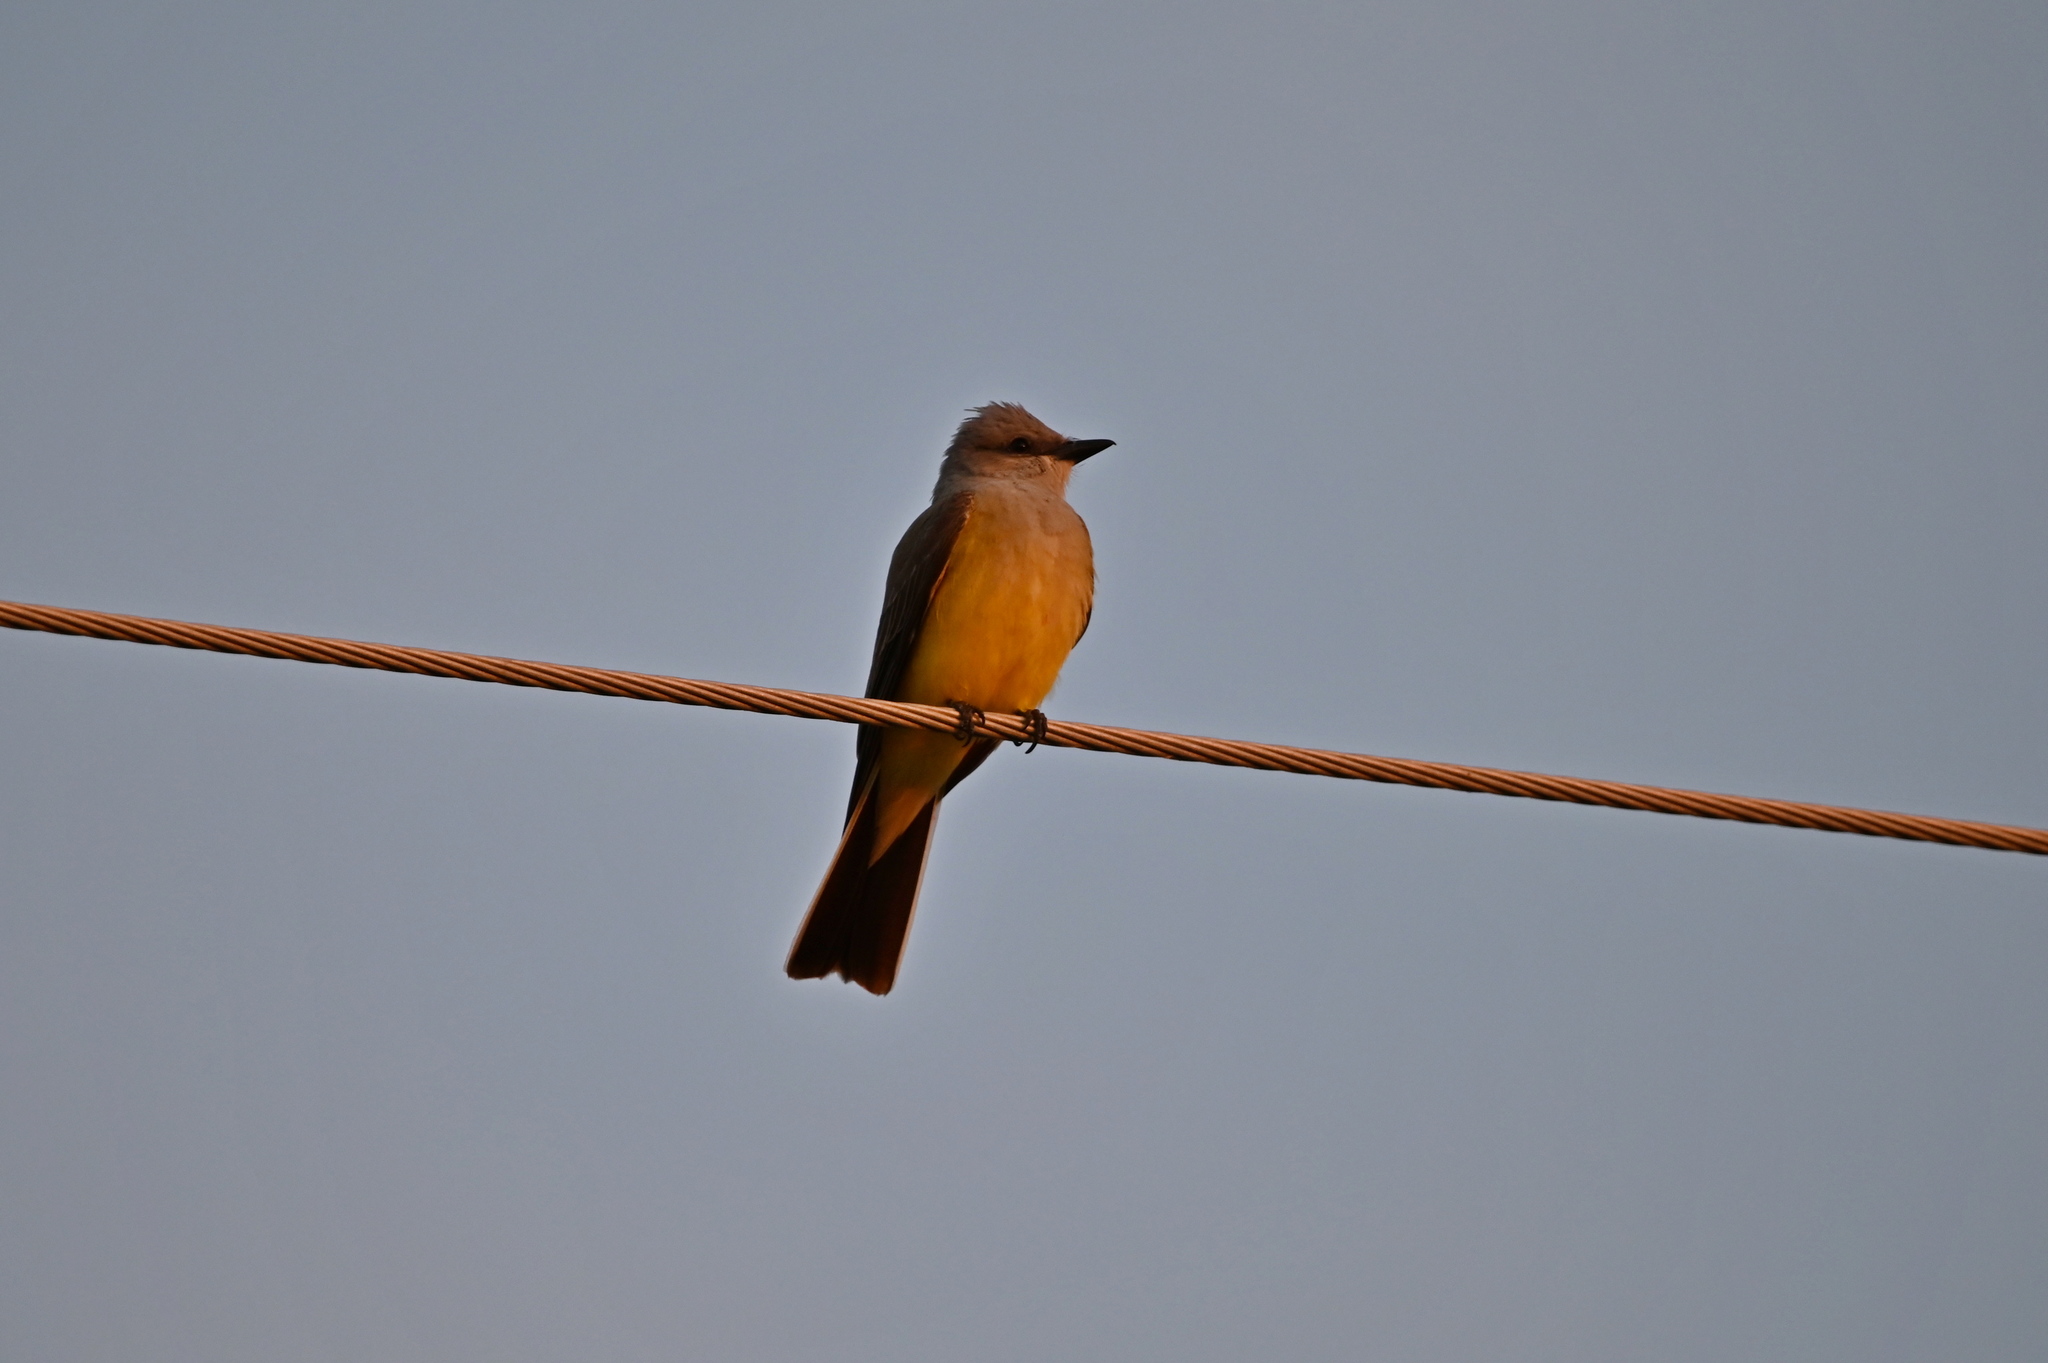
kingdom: Animalia
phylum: Chordata
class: Aves
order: Passeriformes
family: Tyrannidae
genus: Tyrannus
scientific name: Tyrannus verticalis
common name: Western kingbird
